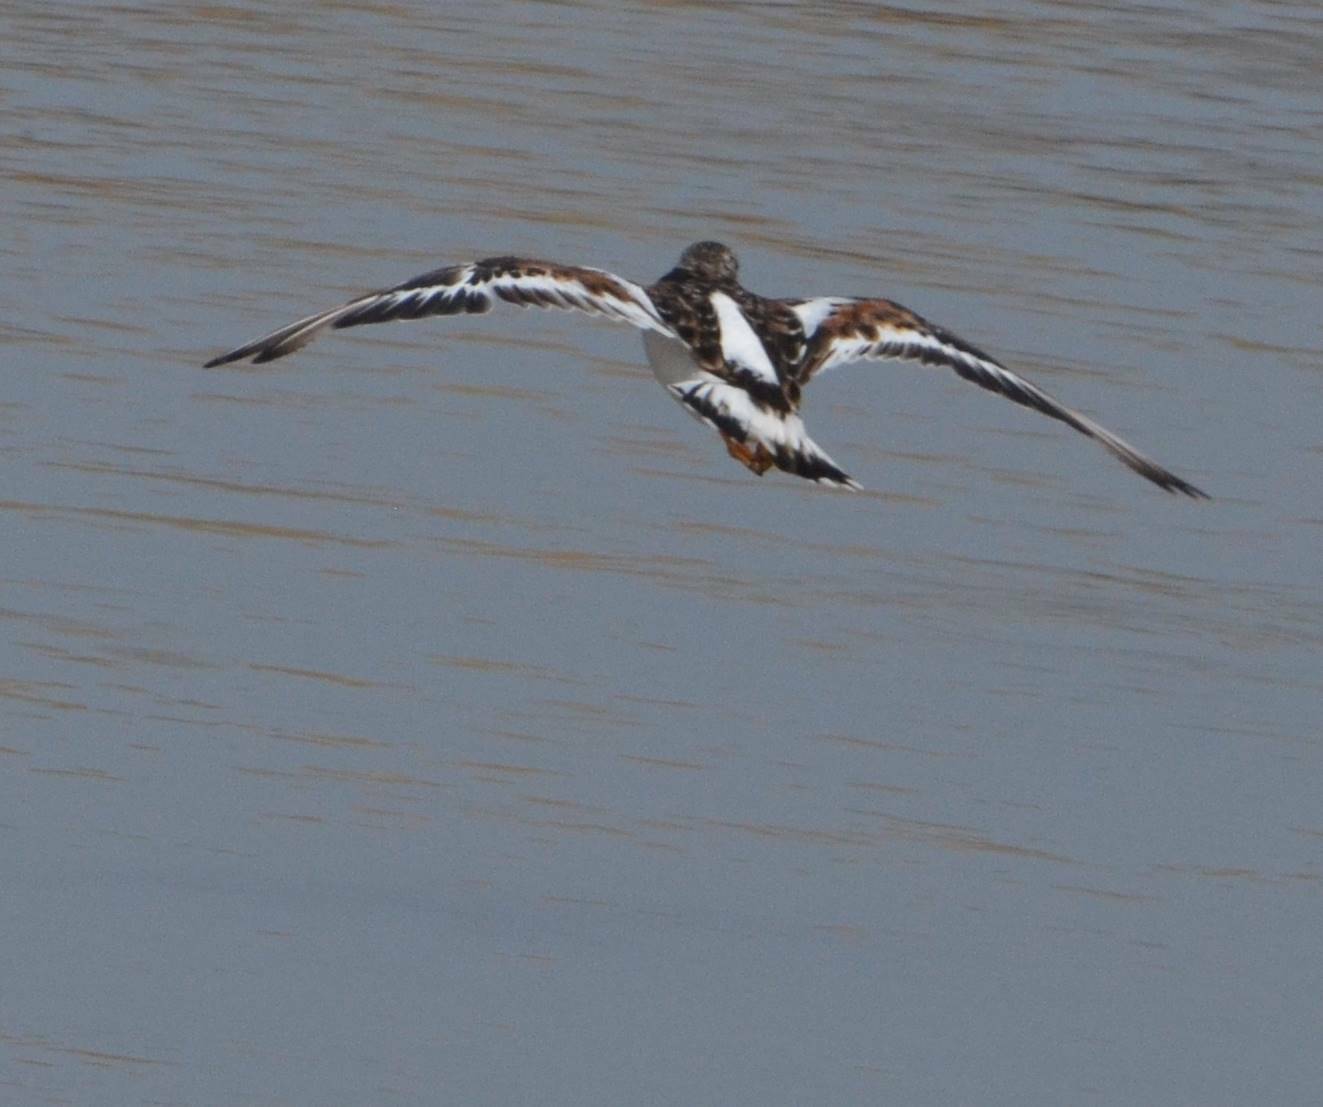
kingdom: Animalia
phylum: Chordata
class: Aves
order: Charadriiformes
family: Scolopacidae
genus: Arenaria
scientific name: Arenaria interpres
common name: Ruddy turnstone
